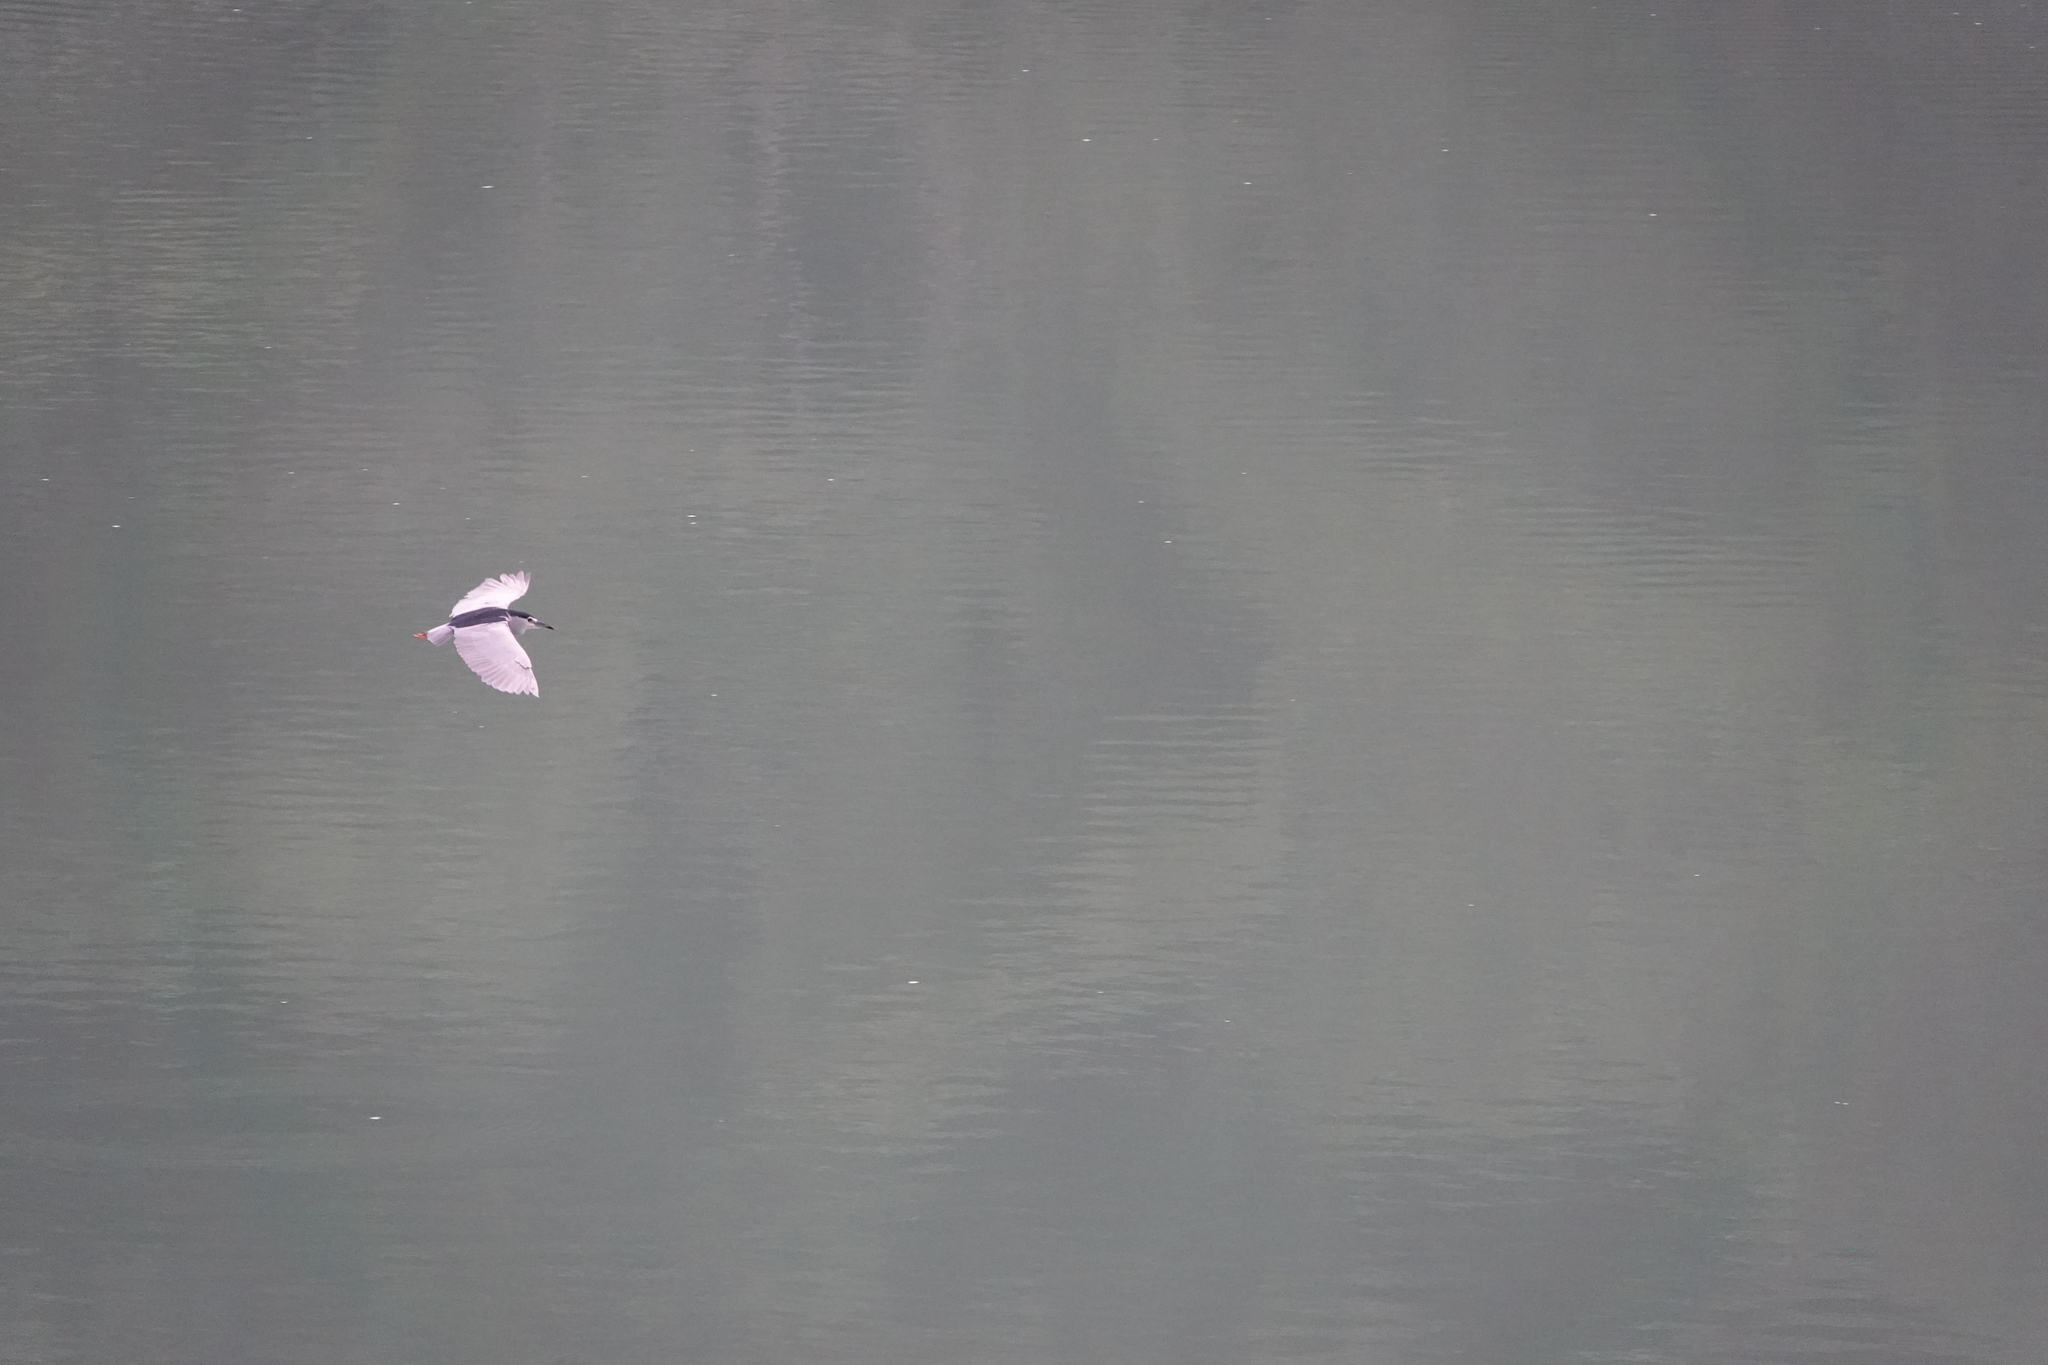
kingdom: Animalia
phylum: Chordata
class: Aves
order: Pelecaniformes
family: Ardeidae
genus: Nycticorax
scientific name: Nycticorax nycticorax
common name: Black-crowned night heron
